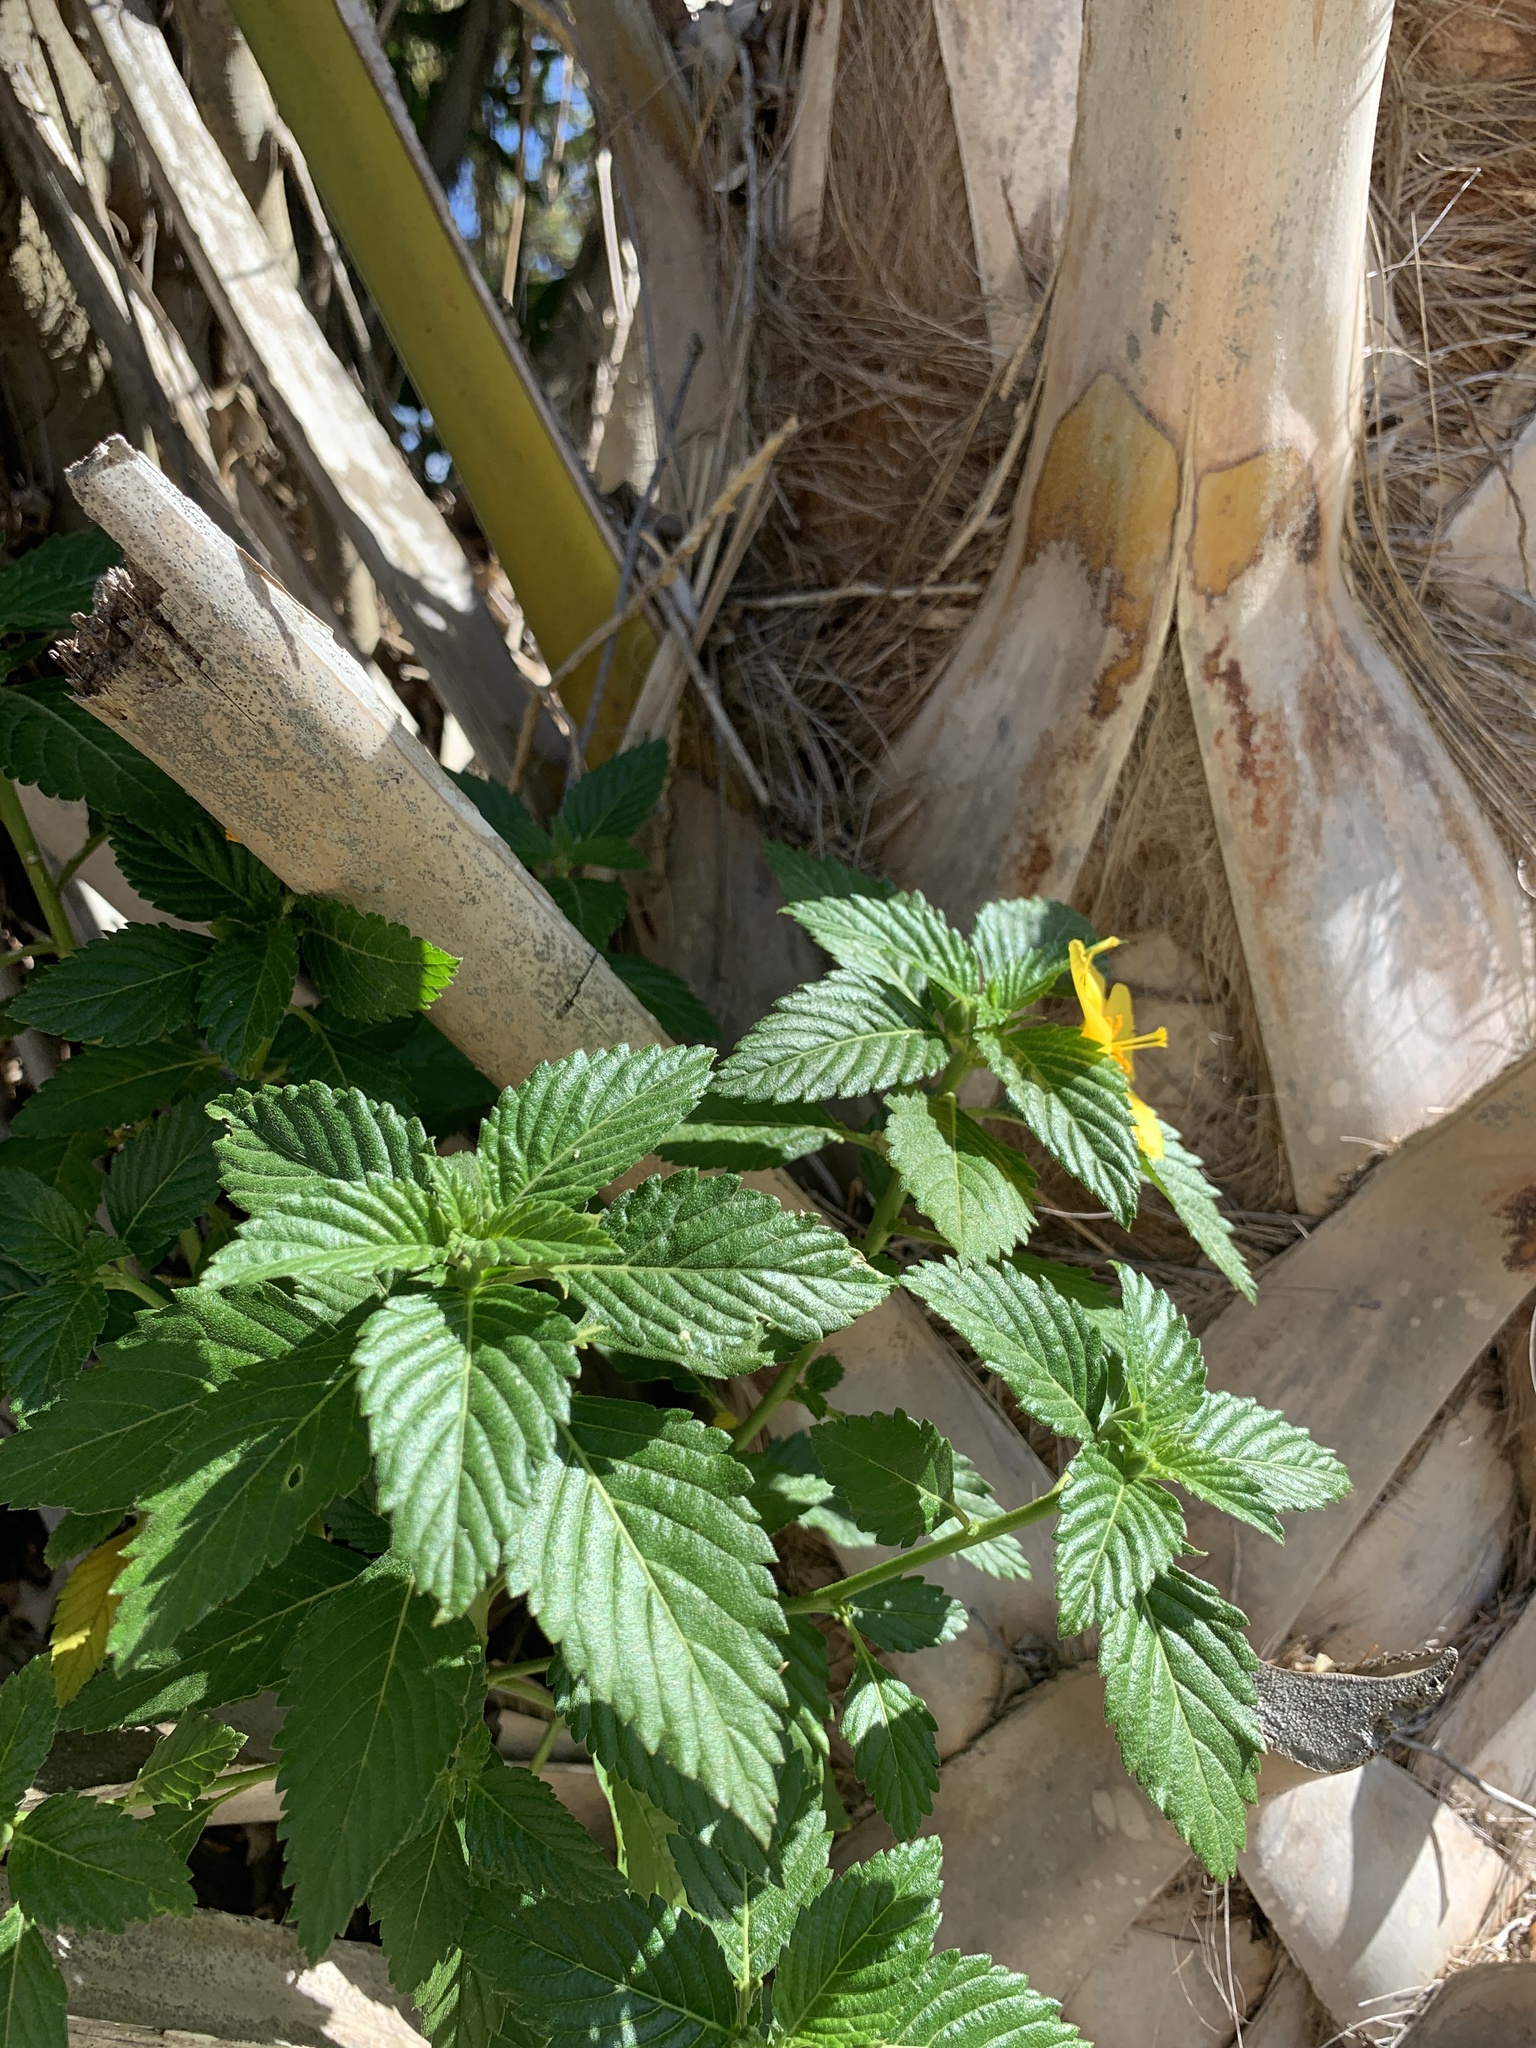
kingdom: Plantae
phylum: Tracheophyta
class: Magnoliopsida
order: Malpighiales
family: Turneraceae
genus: Turnera
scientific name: Turnera ulmifolia
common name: Ramgoat dashalong
